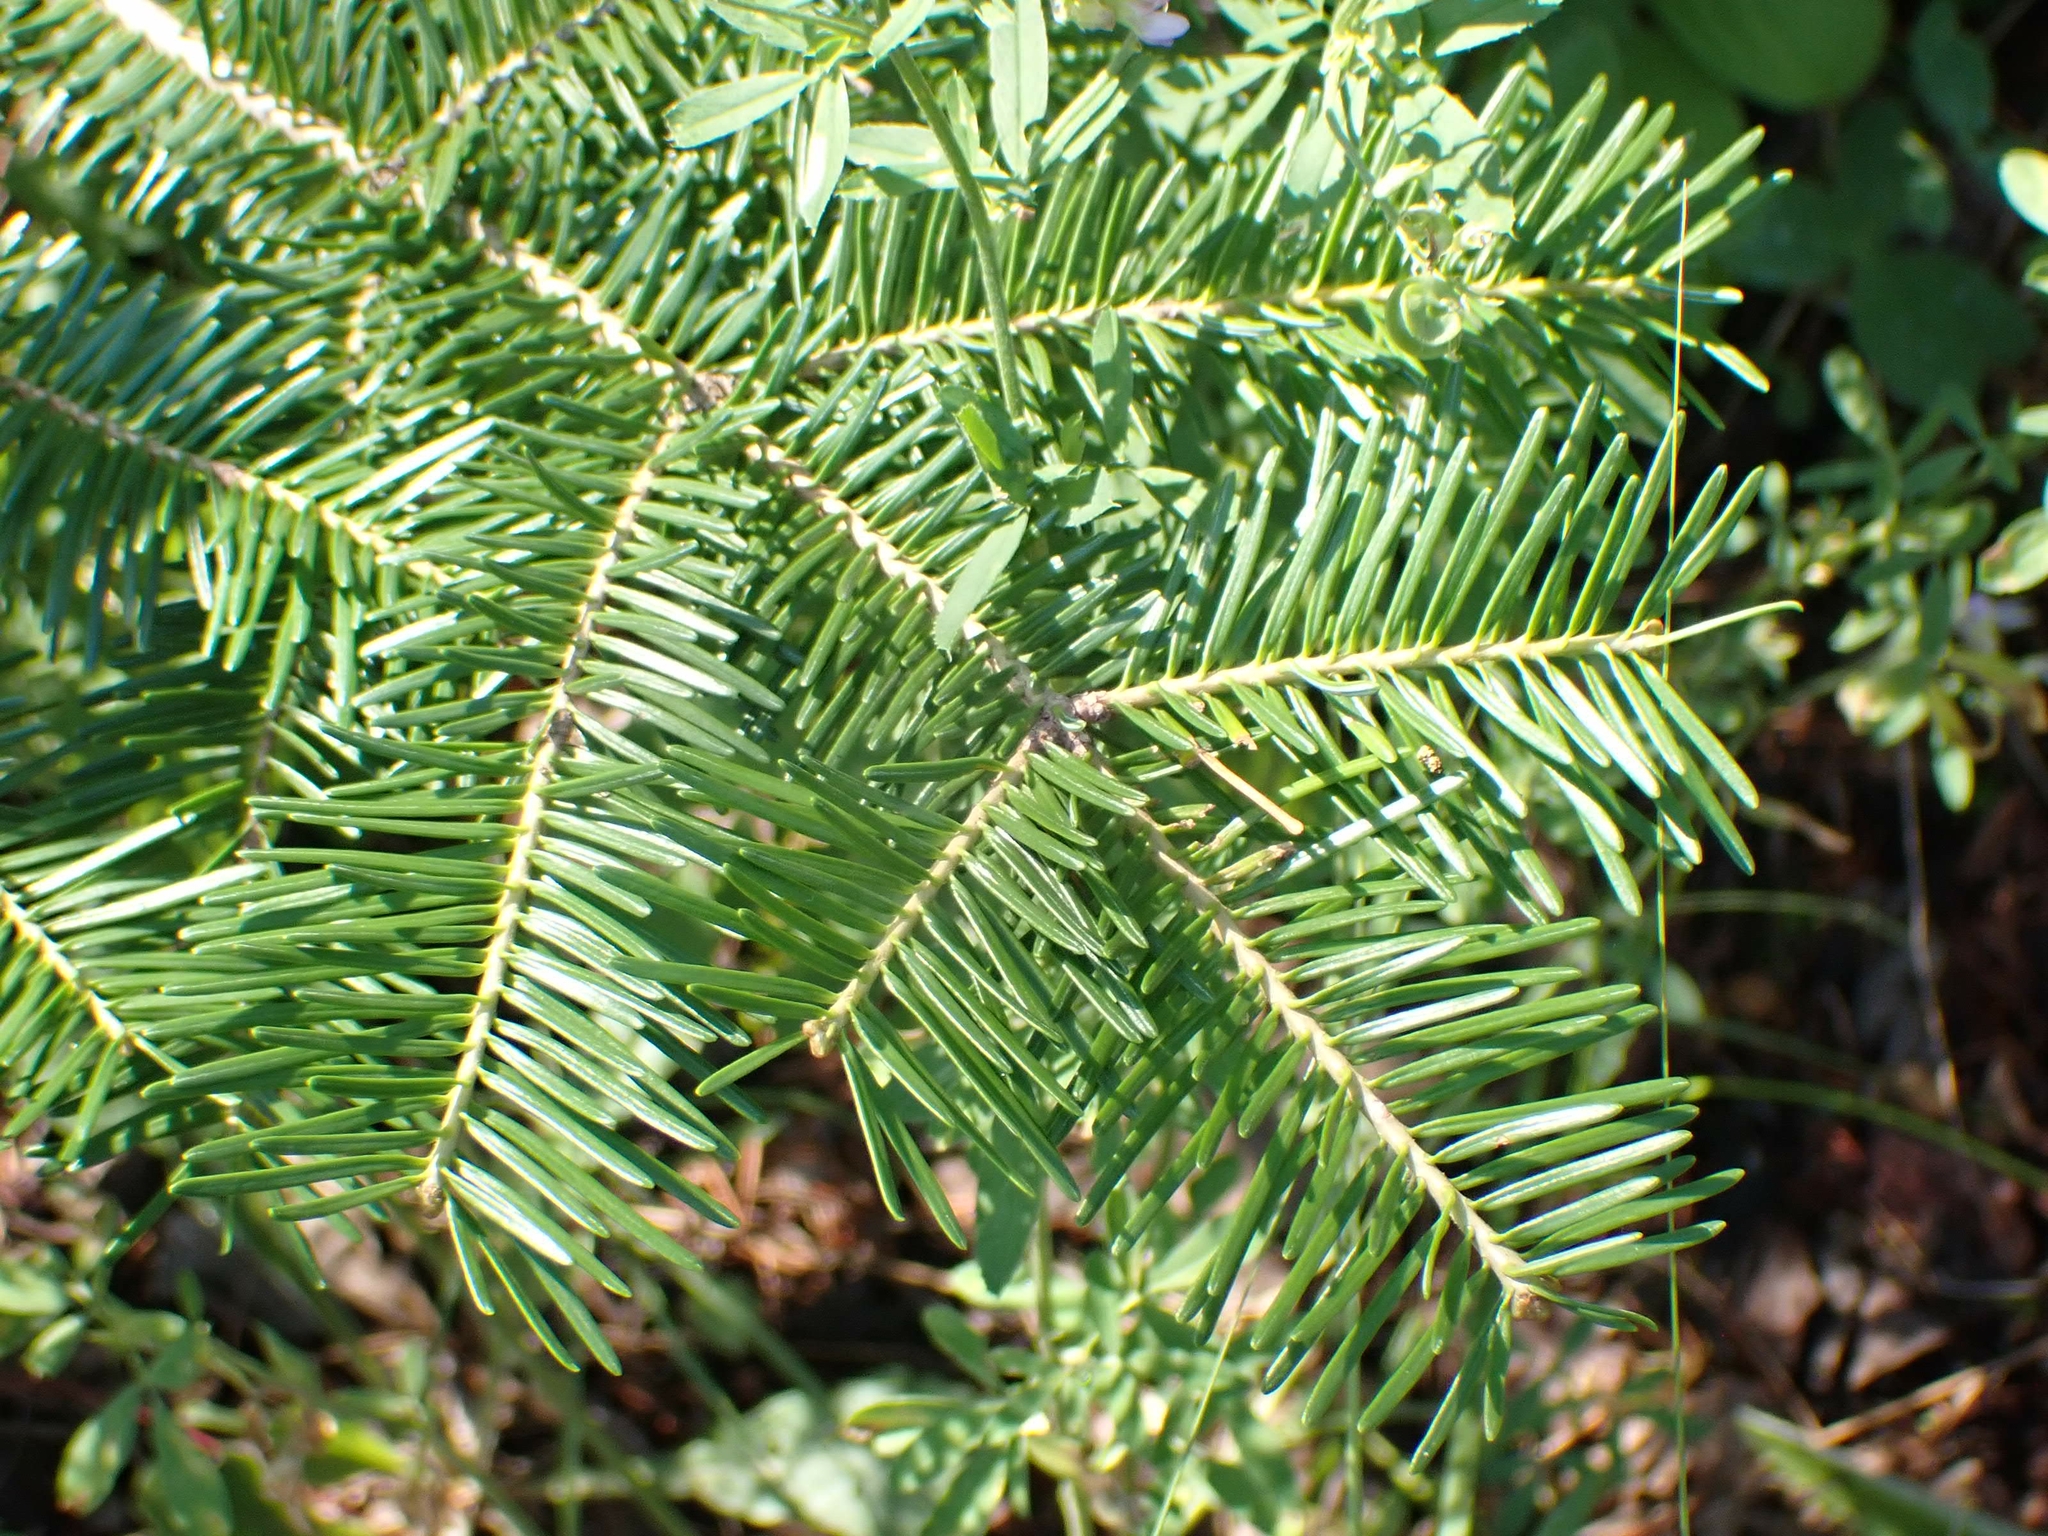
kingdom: Plantae
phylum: Tracheophyta
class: Pinopsida
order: Pinales
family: Pinaceae
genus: Abies
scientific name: Abies balsamea
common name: Balsam fir
